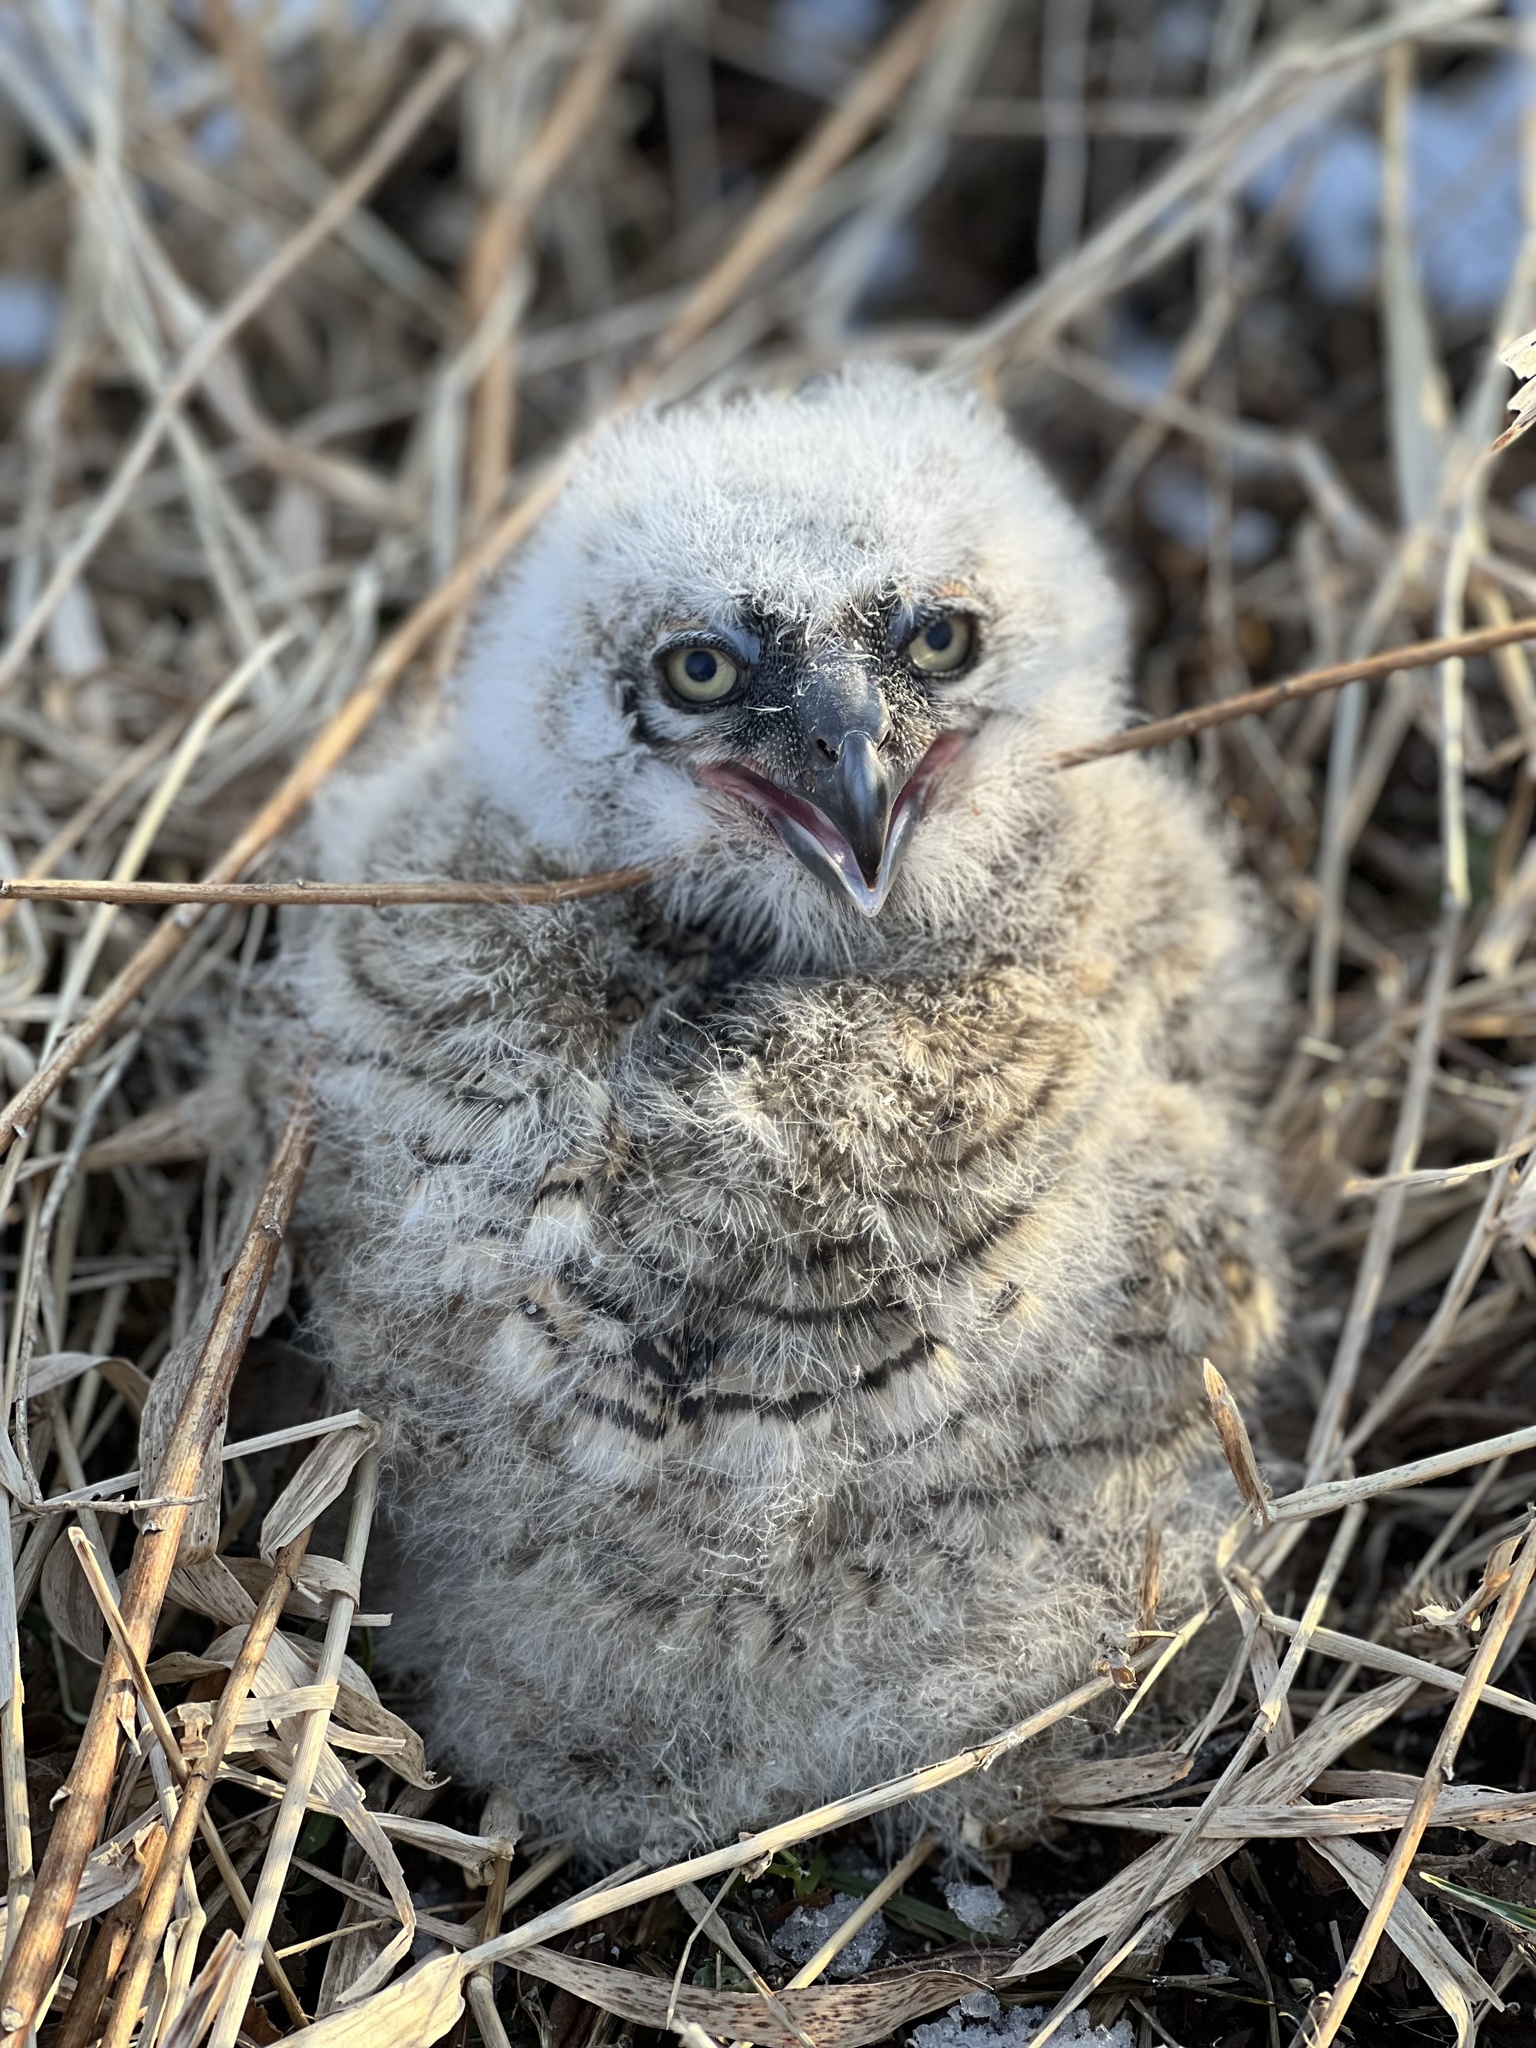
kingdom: Animalia
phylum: Chordata
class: Aves
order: Strigiformes
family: Strigidae
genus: Bubo
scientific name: Bubo virginianus
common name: Great horned owl
